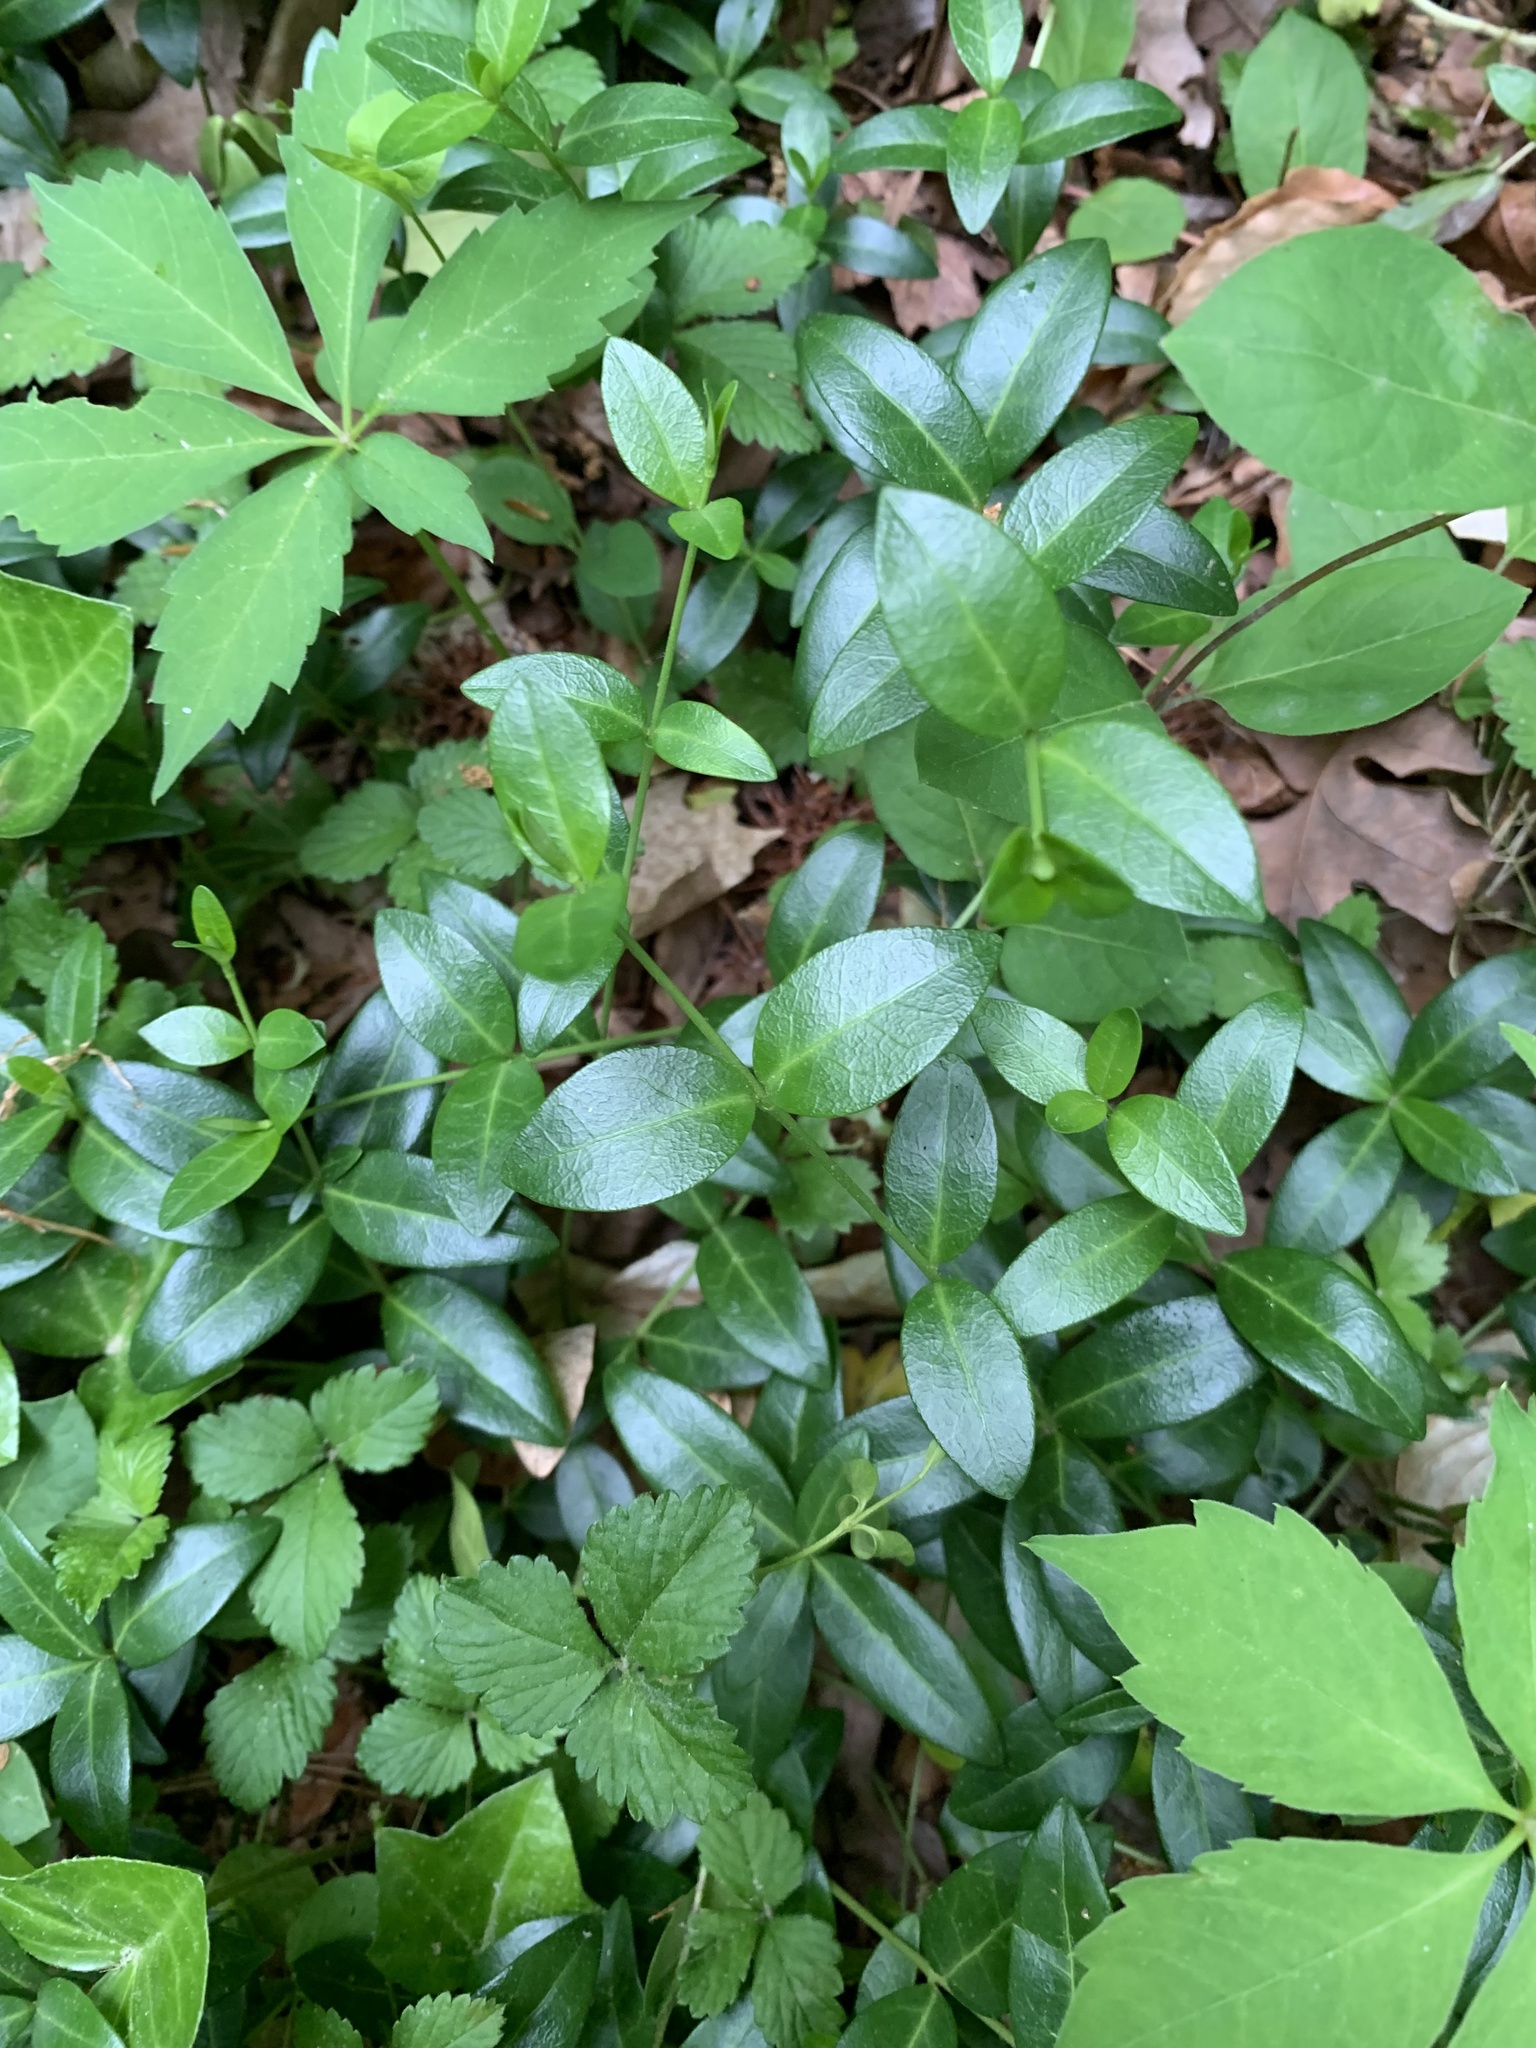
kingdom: Plantae
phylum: Tracheophyta
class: Magnoliopsida
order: Gentianales
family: Apocynaceae
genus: Vinca
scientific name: Vinca minor
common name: Lesser periwinkle
